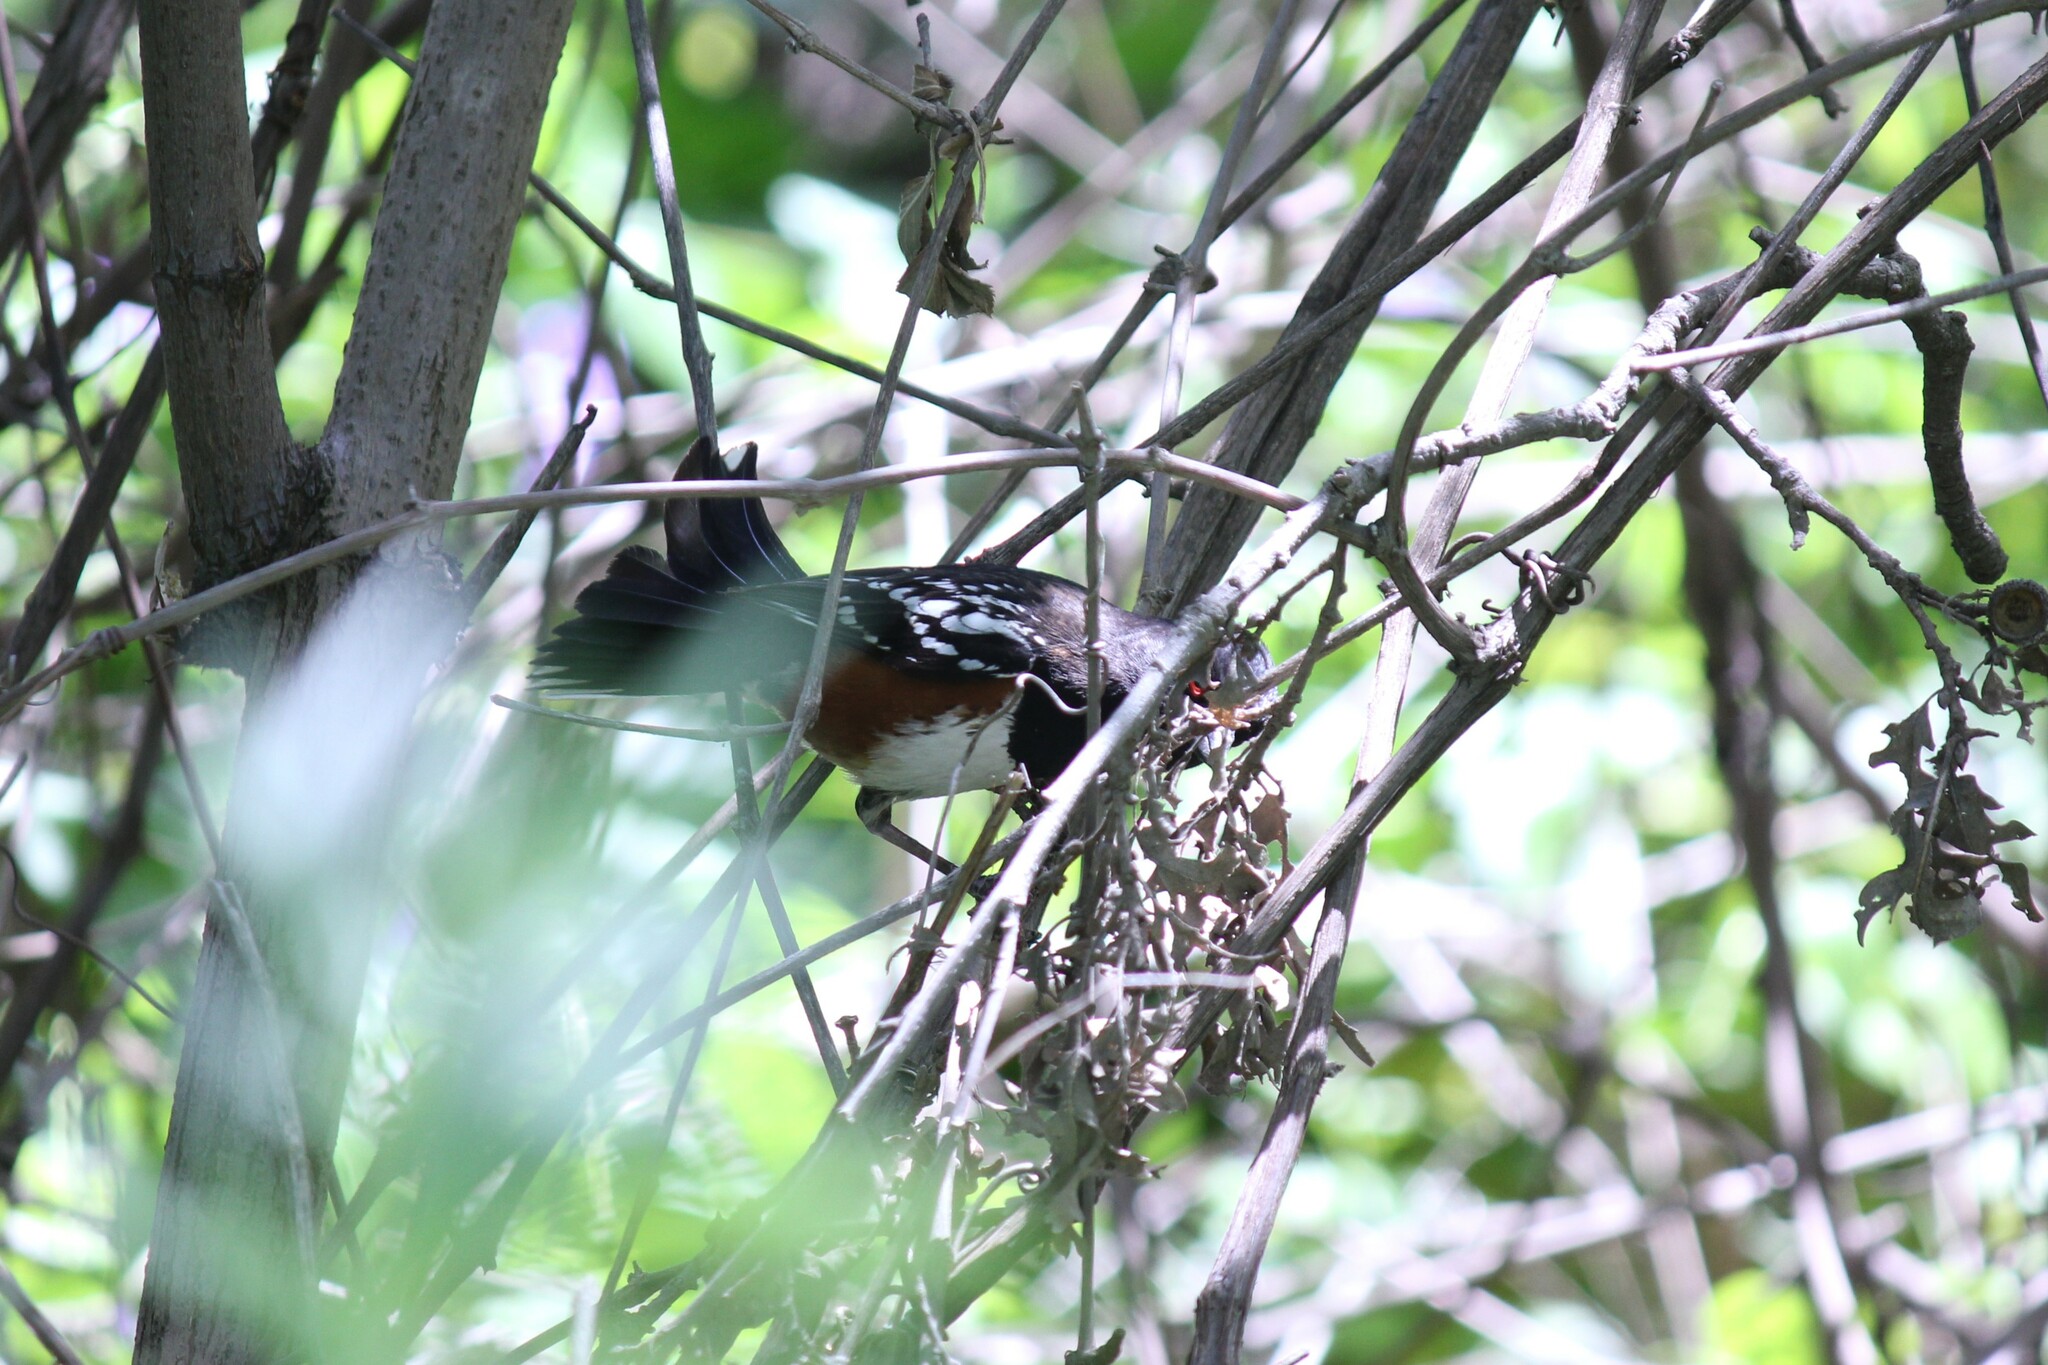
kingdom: Animalia
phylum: Chordata
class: Aves
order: Passeriformes
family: Passerellidae
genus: Pipilo
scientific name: Pipilo maculatus
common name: Spotted towhee
